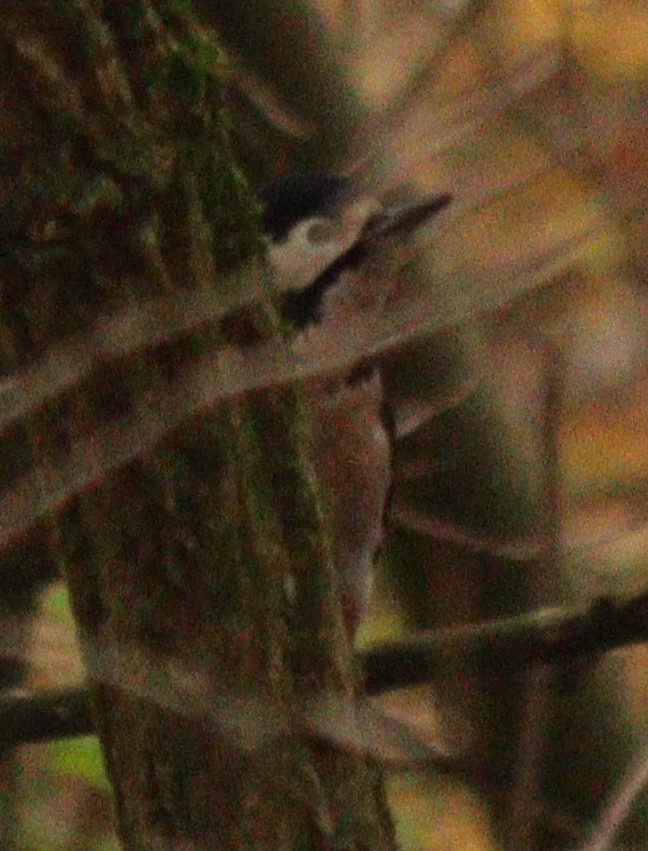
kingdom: Animalia
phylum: Chordata
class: Aves
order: Piciformes
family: Picidae
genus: Dendrocopos
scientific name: Dendrocopos major
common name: Great spotted woodpecker
